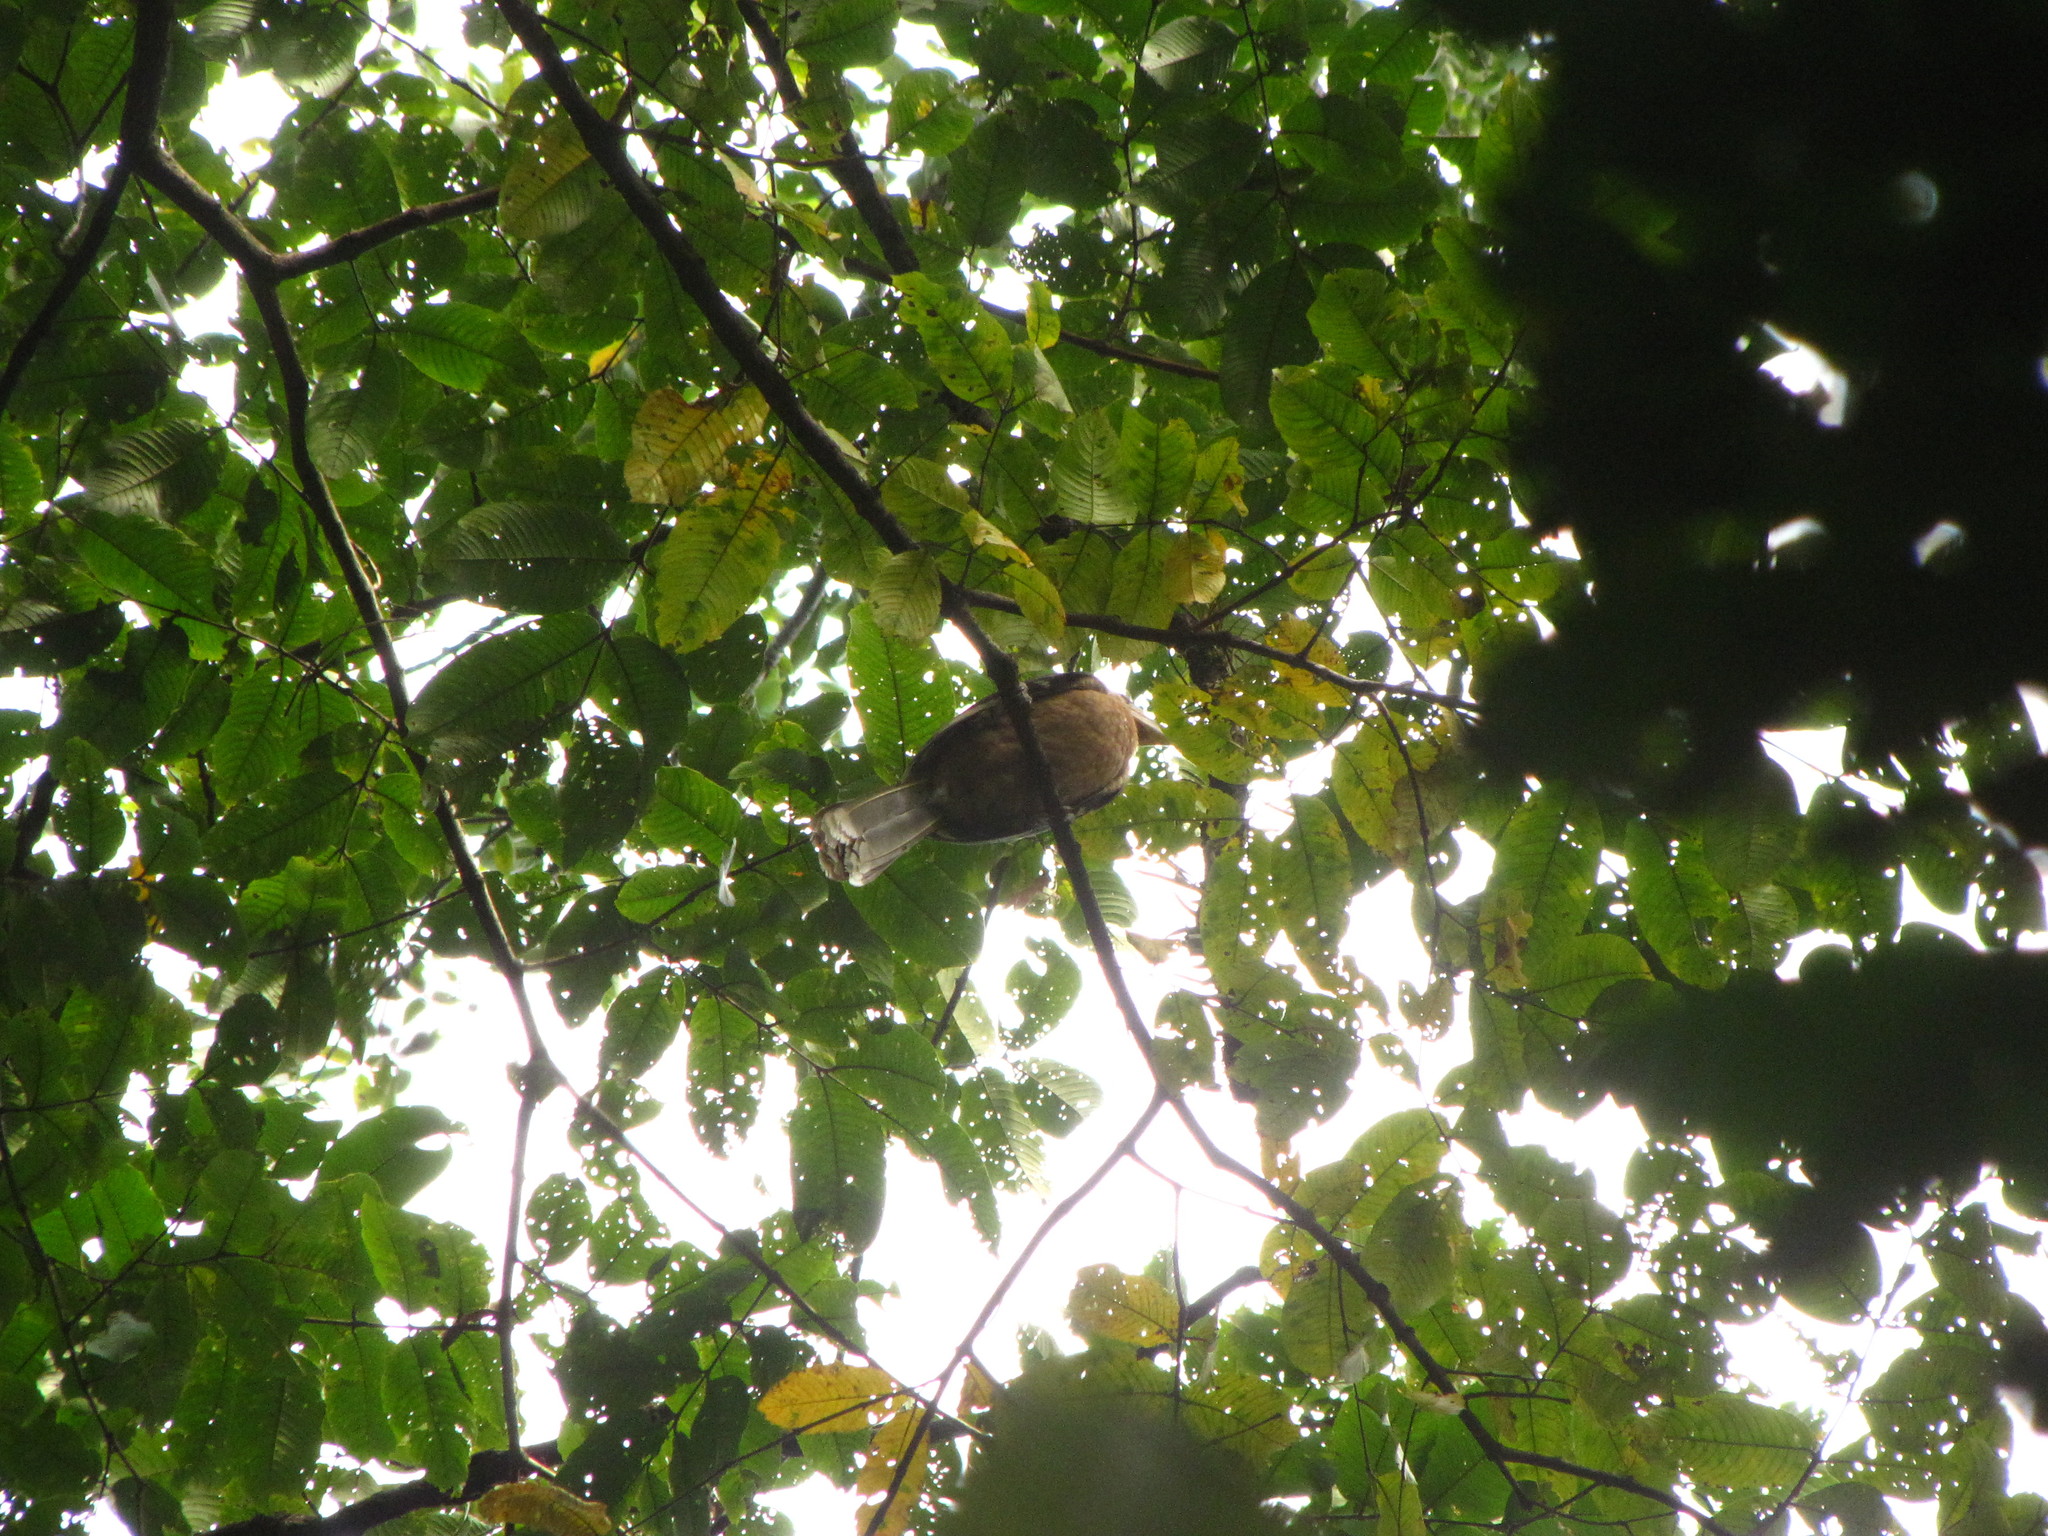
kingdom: Animalia
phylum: Chordata
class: Aves
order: Bucerotiformes
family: Bucerotidae
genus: Anorrhinus
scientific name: Anorrhinus austeni
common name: Austen's brown hornbill
